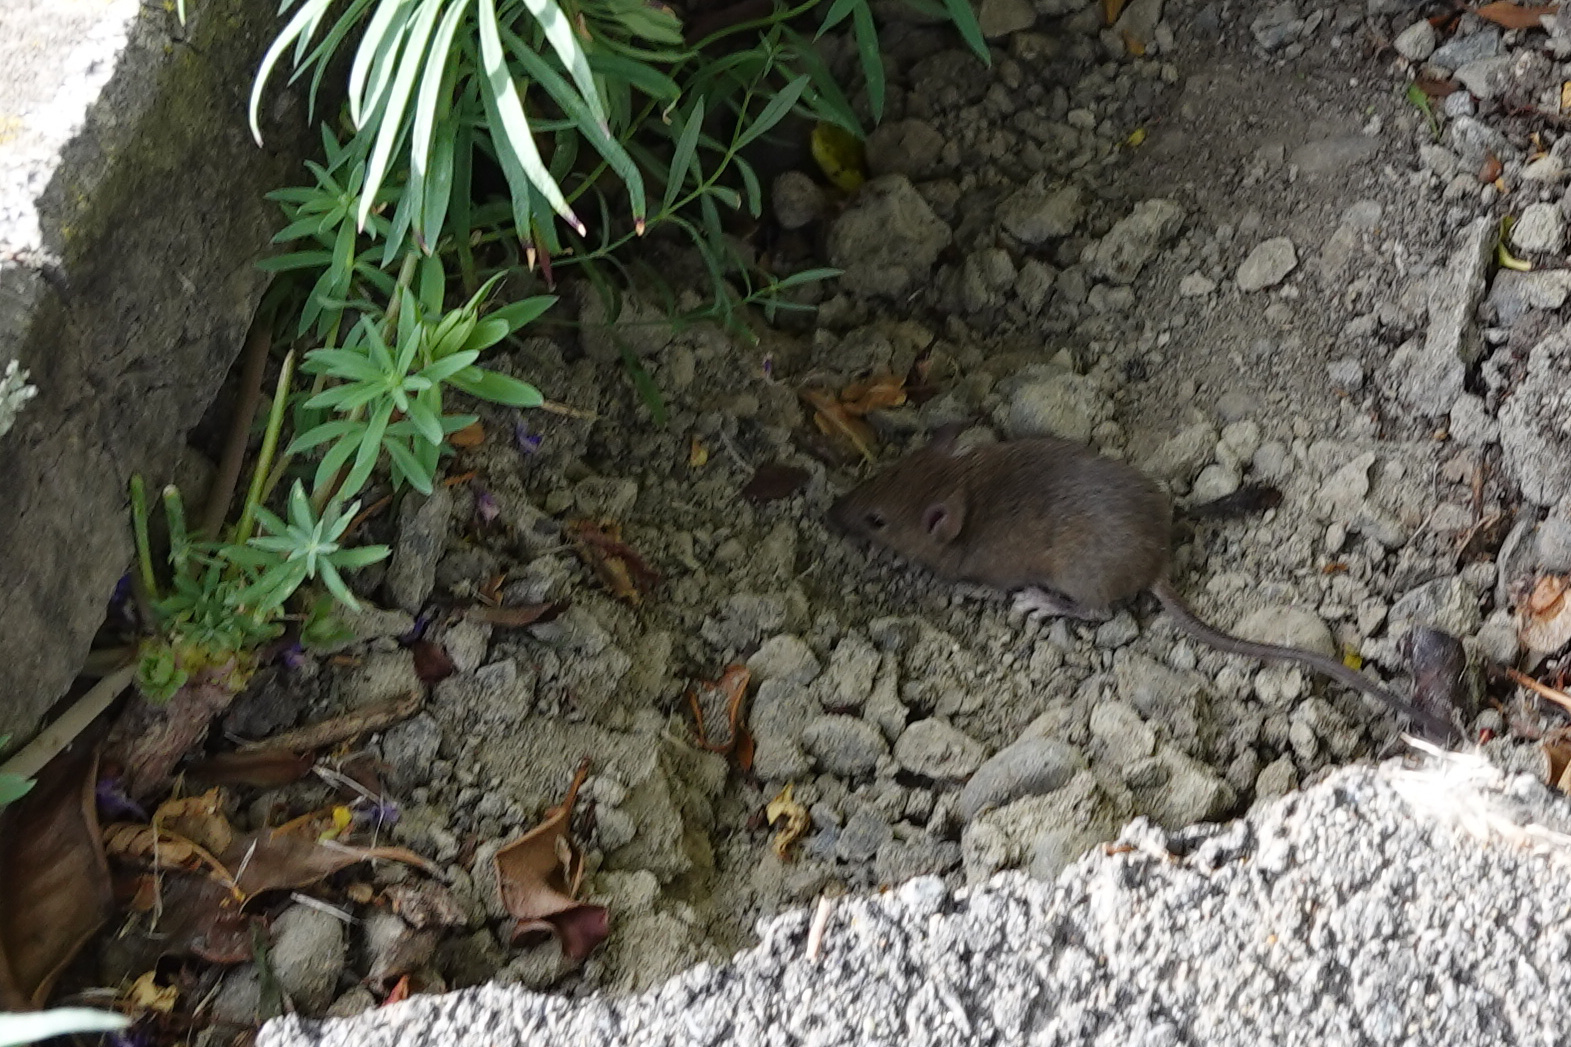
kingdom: Animalia
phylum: Chordata
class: Mammalia
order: Rodentia
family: Muridae
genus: Mus
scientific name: Mus musculus
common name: House mouse
